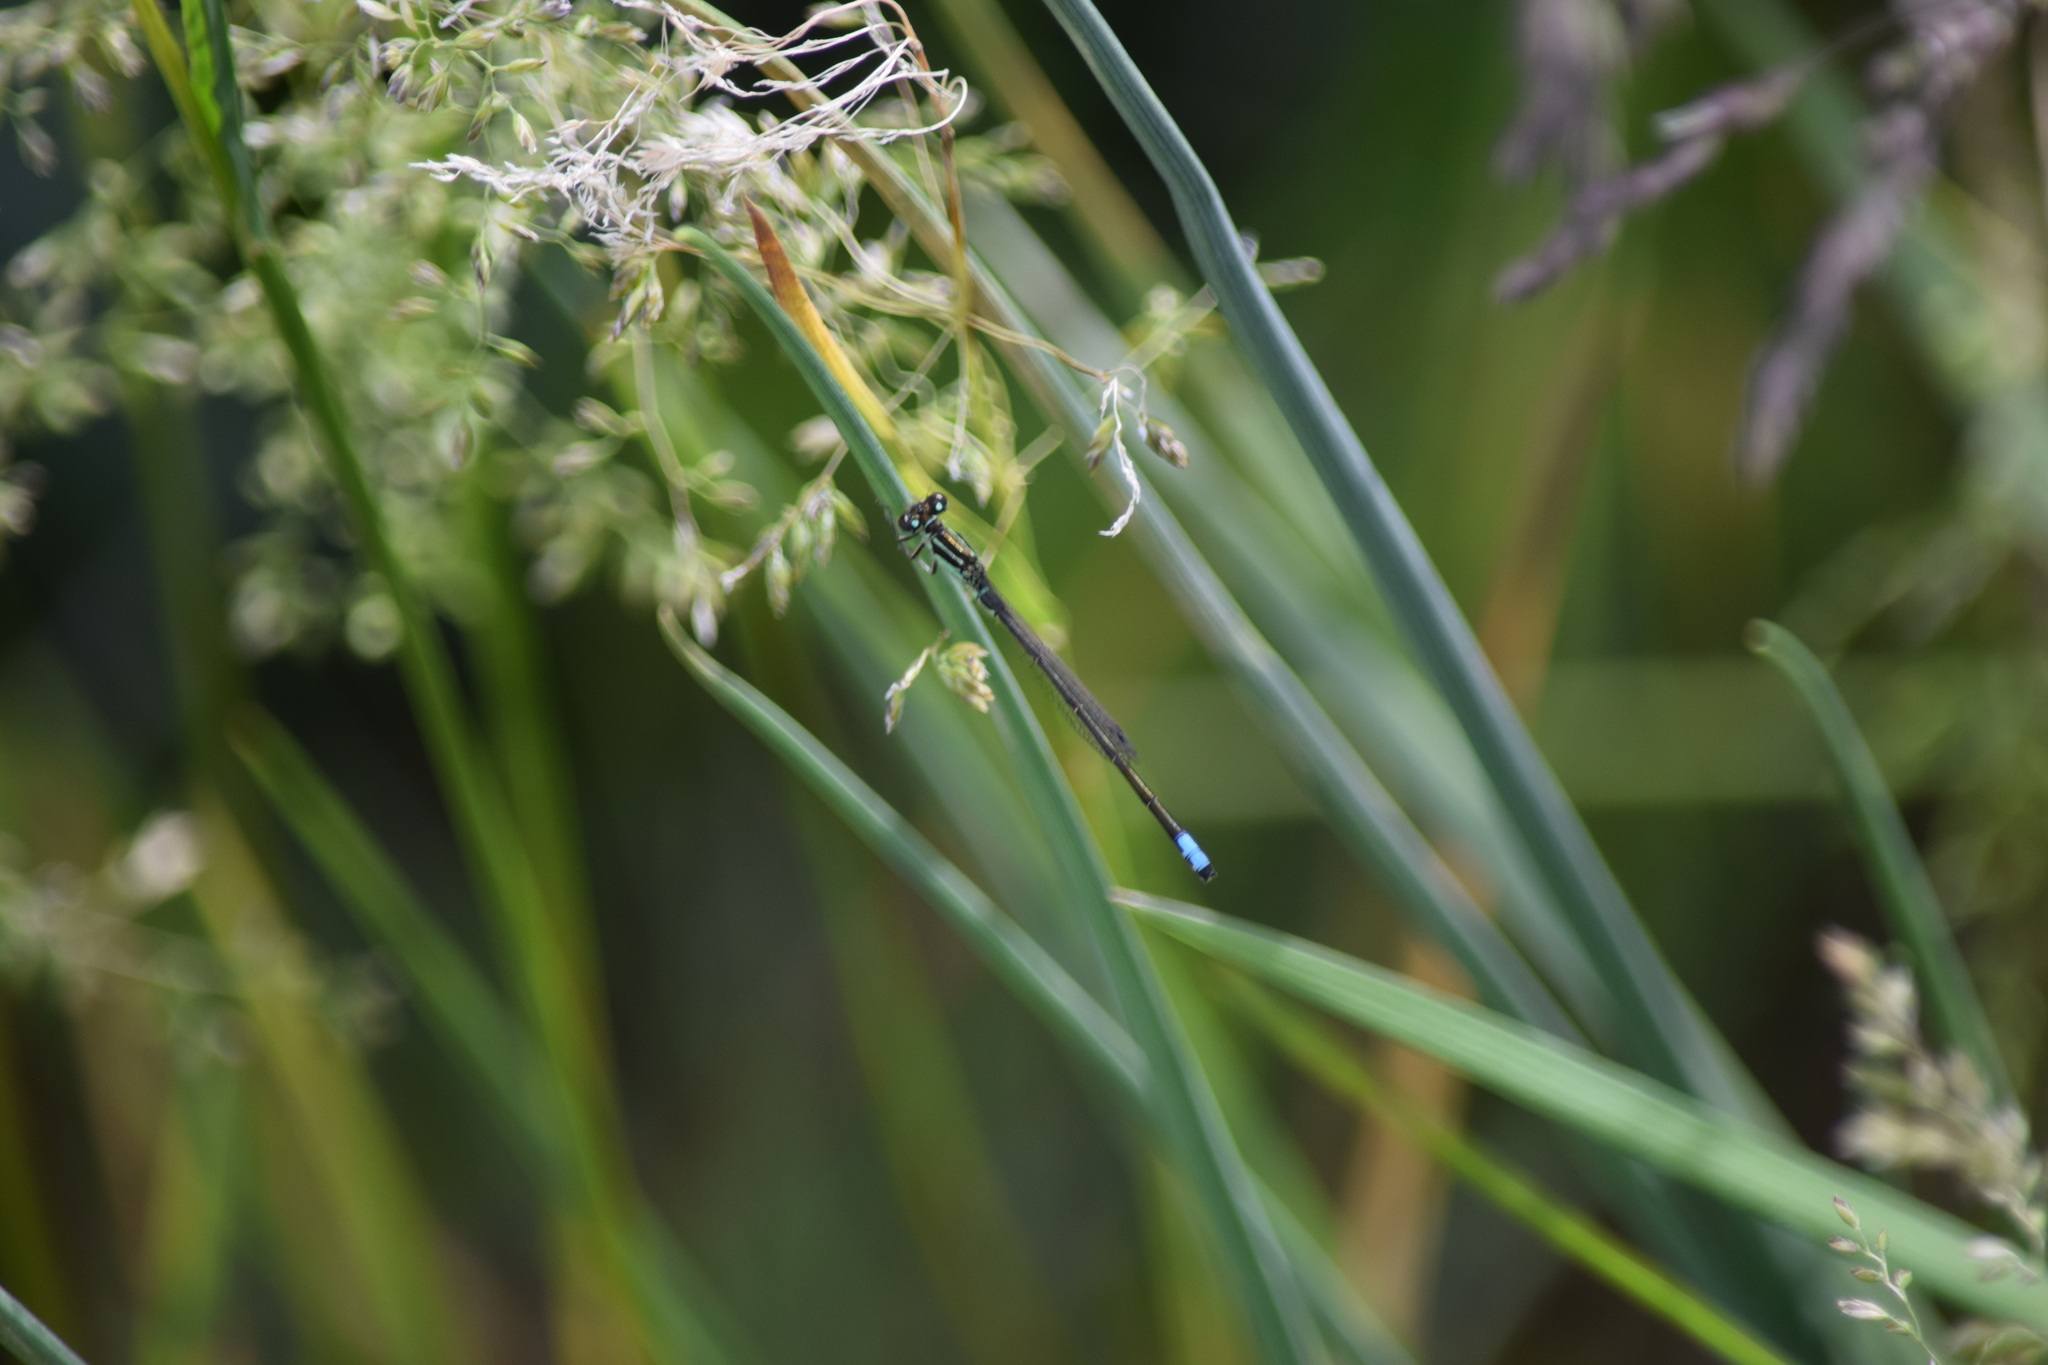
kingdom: Animalia
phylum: Arthropoda
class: Insecta
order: Odonata
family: Coenagrionidae
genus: Ischnura
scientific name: Ischnura verticalis
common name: Eastern forktail
